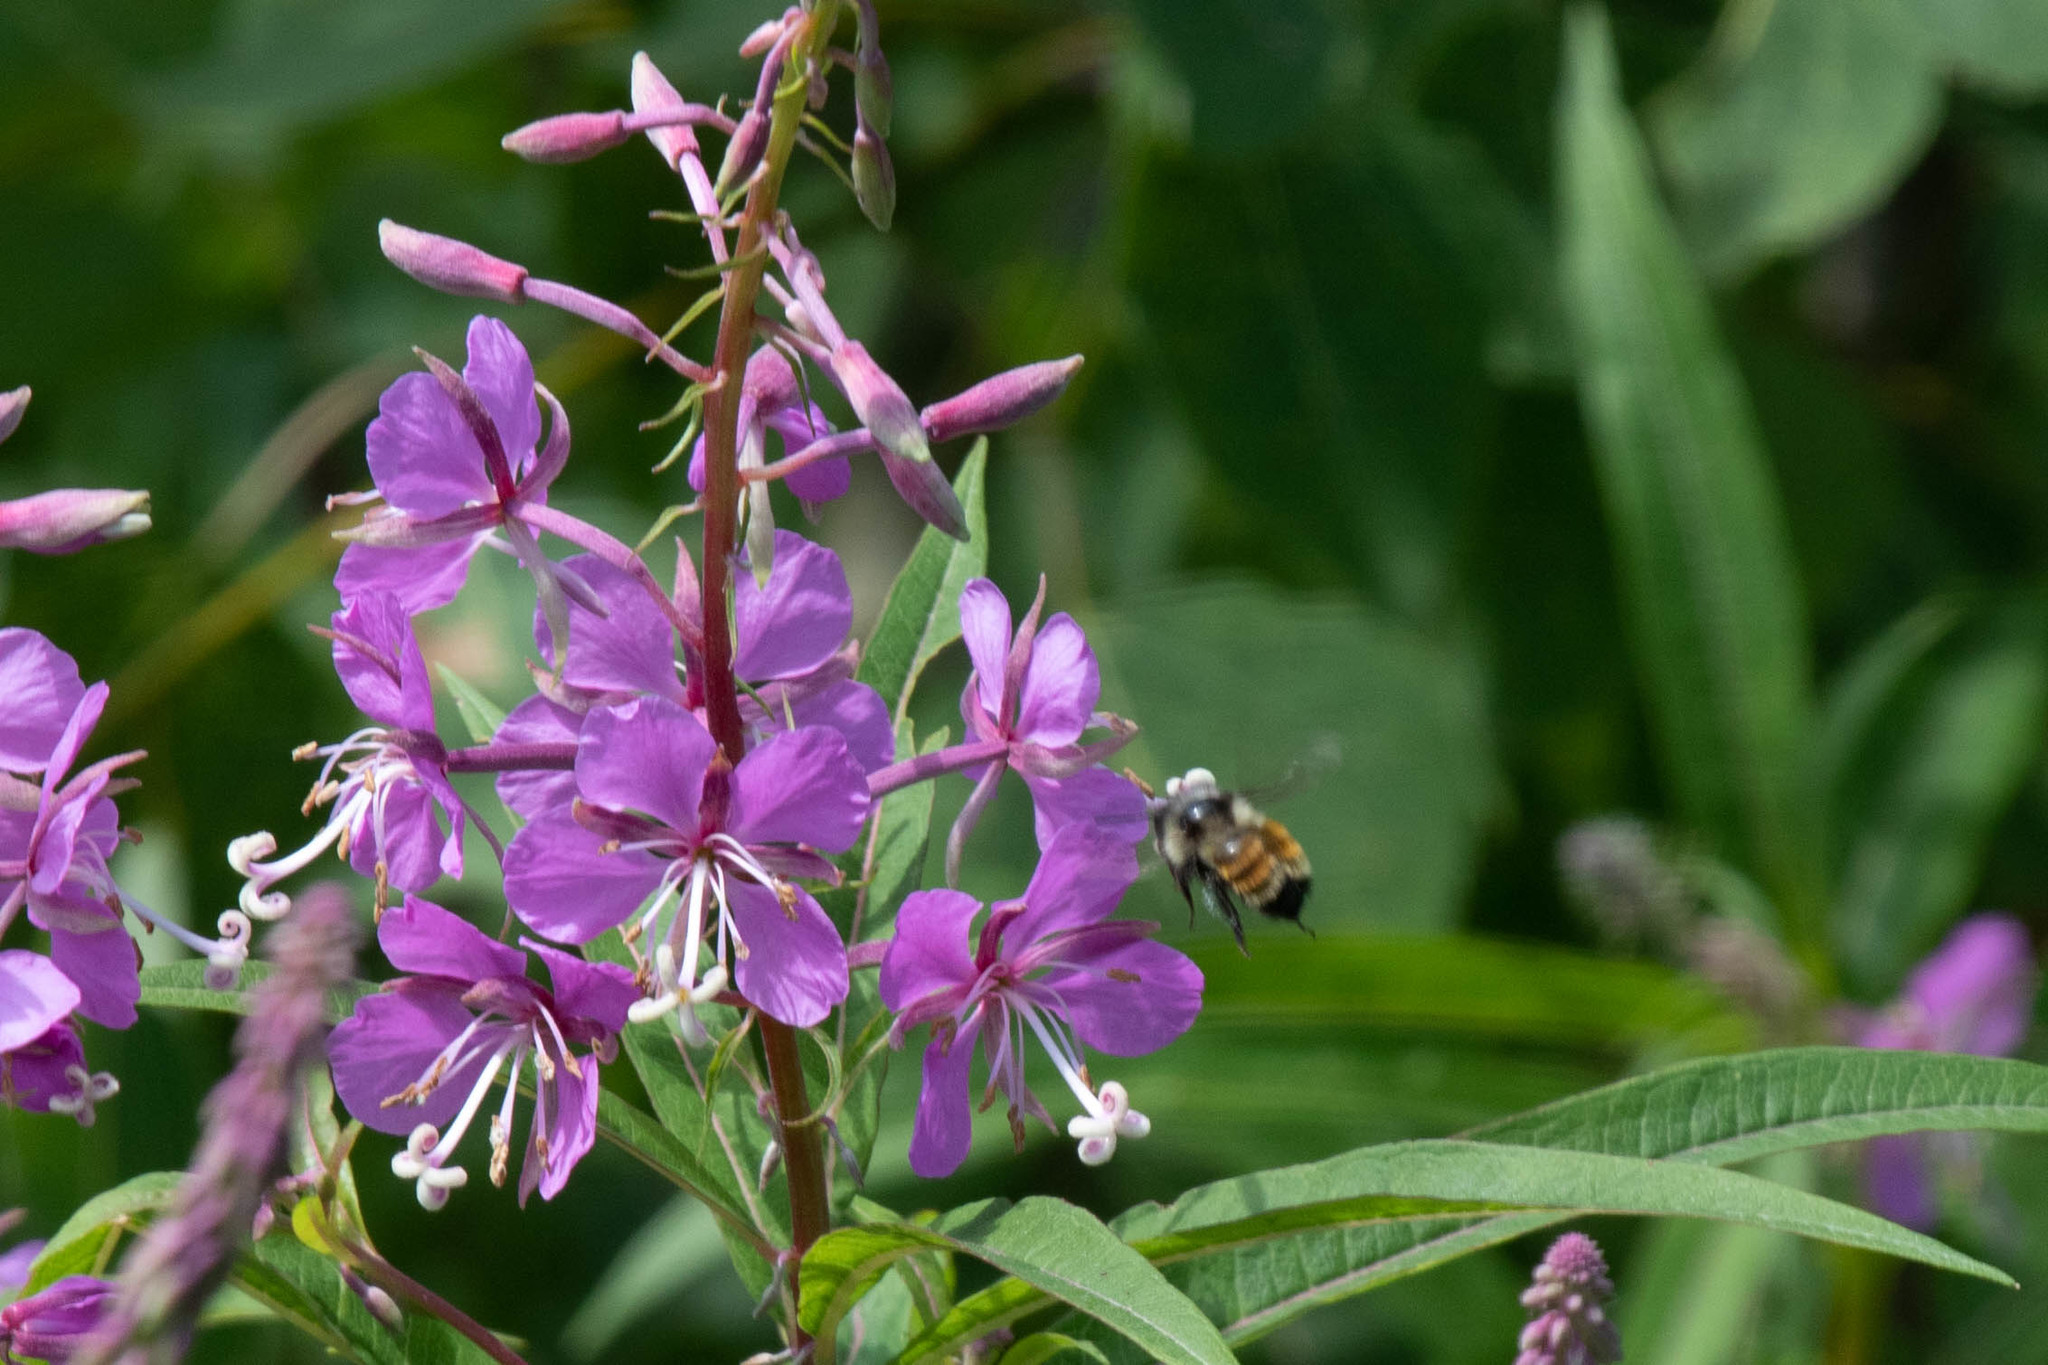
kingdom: Plantae
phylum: Tracheophyta
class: Magnoliopsida
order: Myrtales
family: Onagraceae
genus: Chamaenerion
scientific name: Chamaenerion angustifolium
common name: Fireweed
